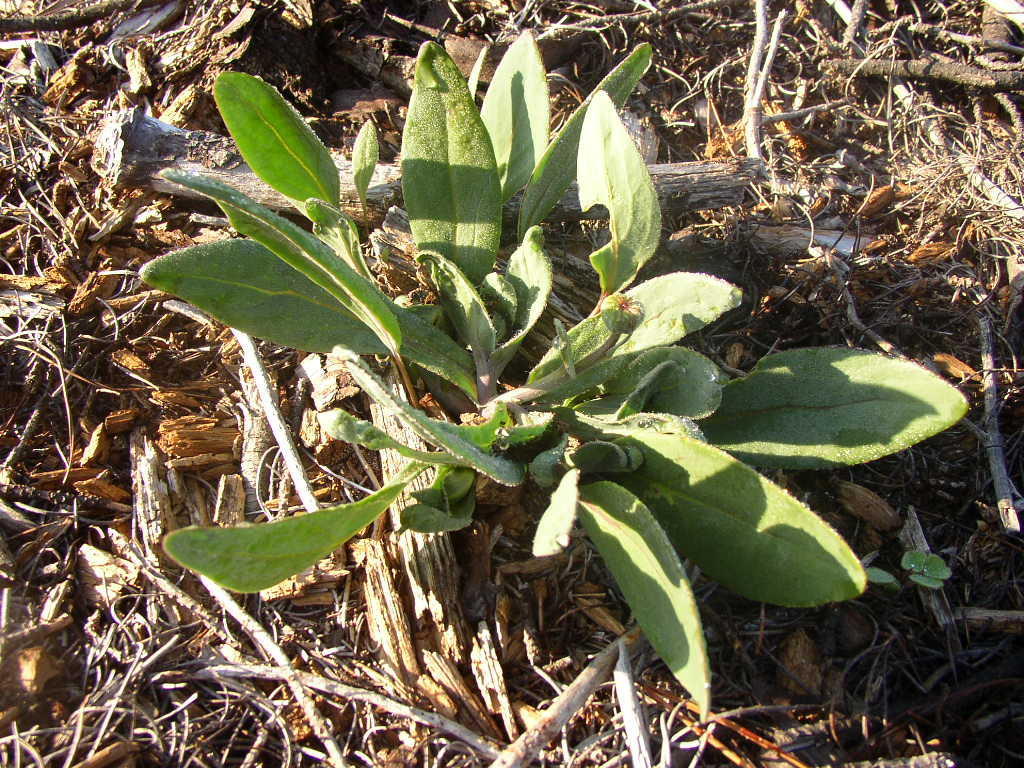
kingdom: Plantae
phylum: Tracheophyta
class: Magnoliopsida
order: Asterales
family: Asteraceae
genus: Othonna
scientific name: Othonna bulbosa
